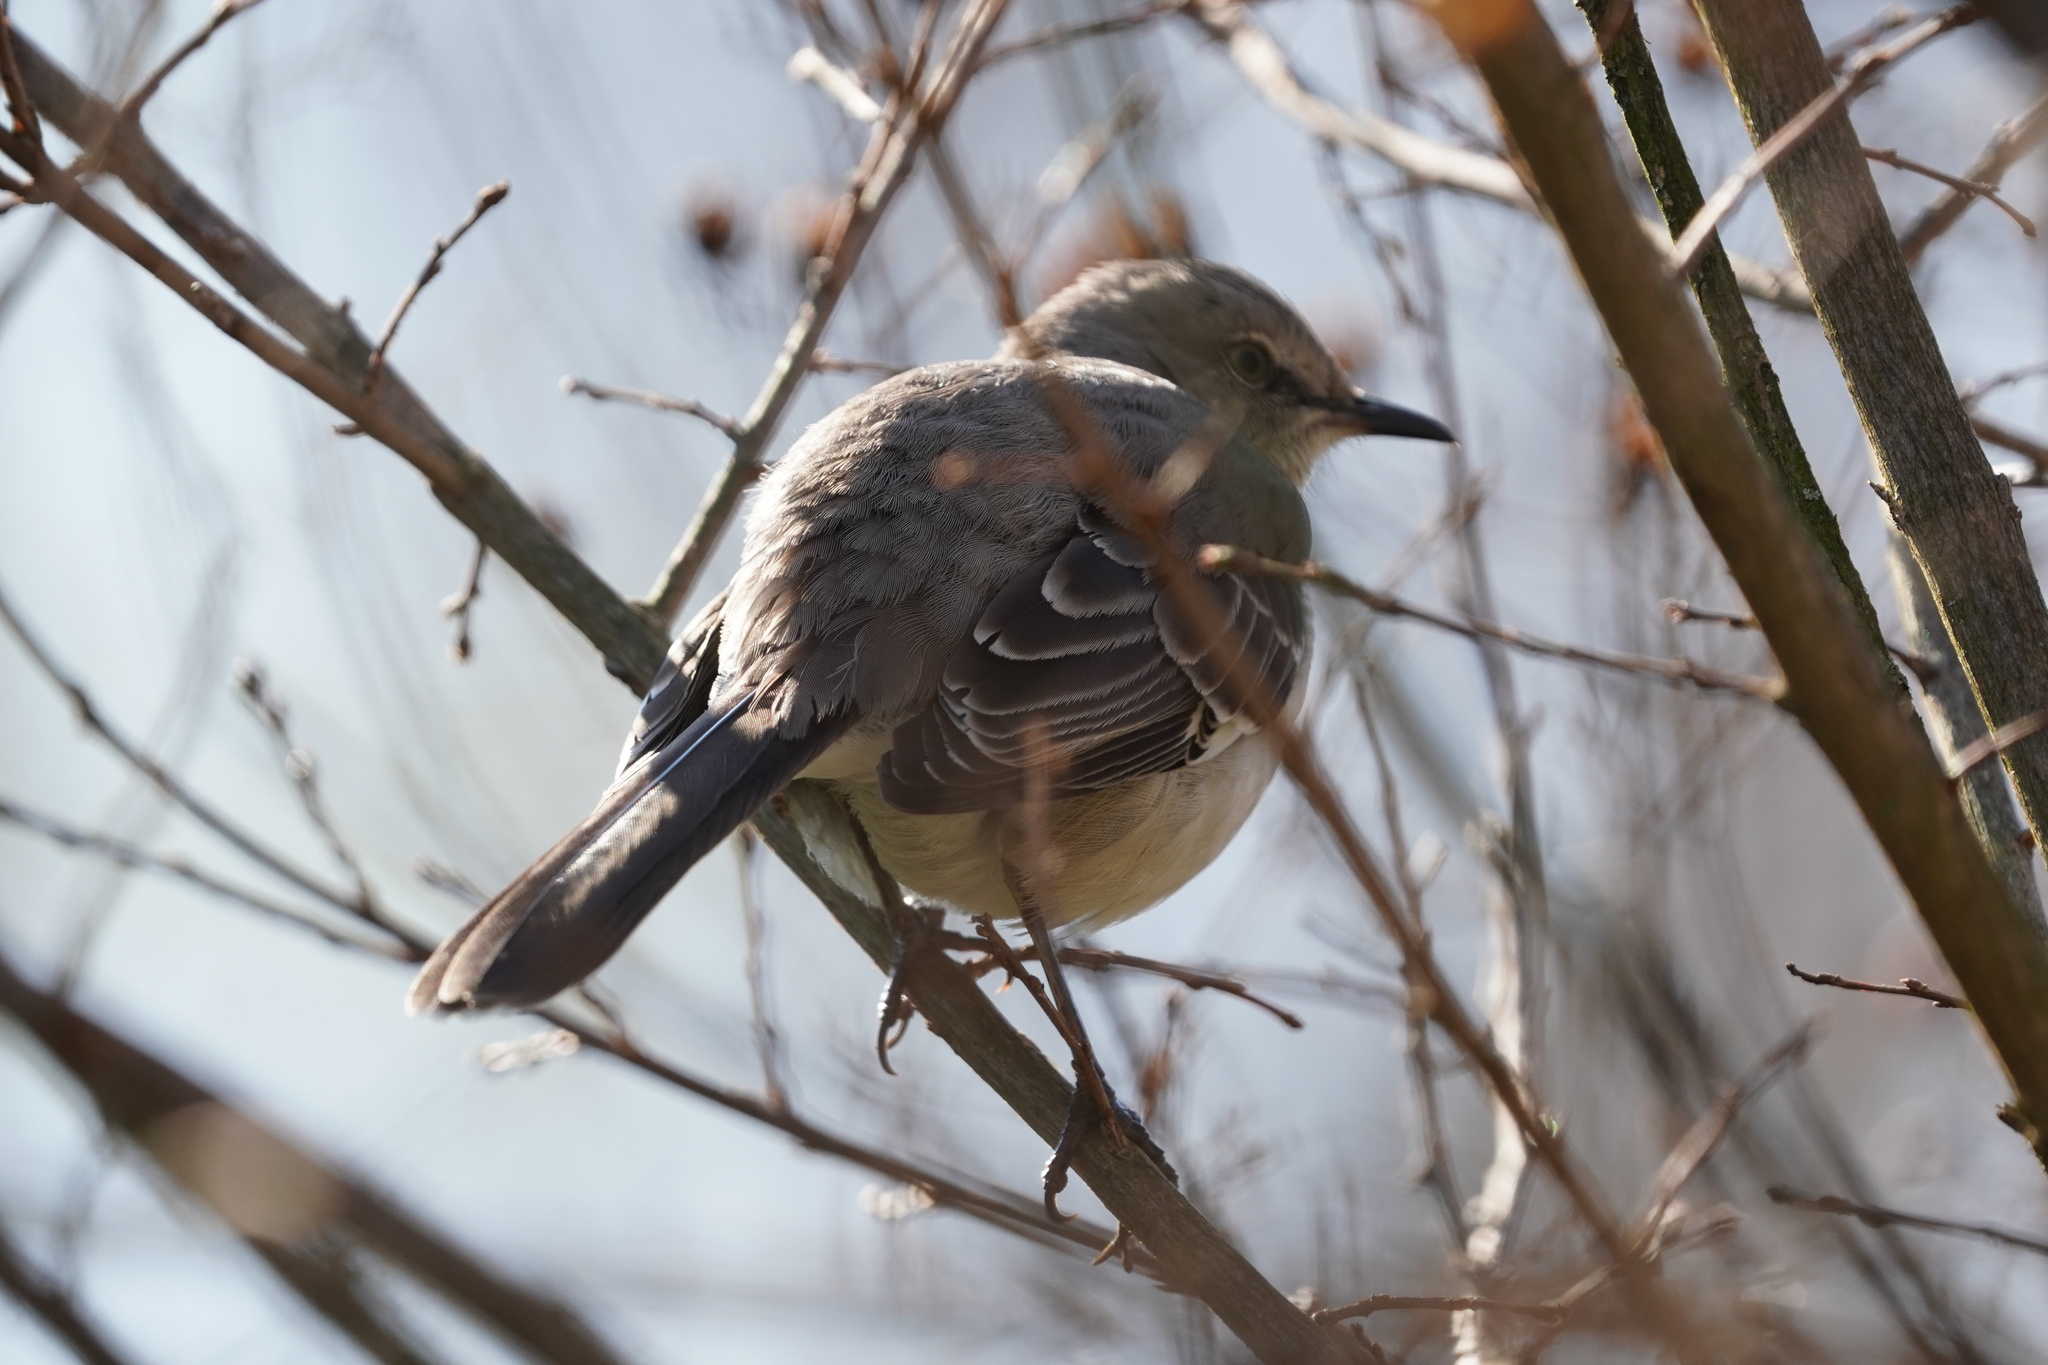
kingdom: Animalia
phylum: Chordata
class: Aves
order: Passeriformes
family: Mimidae
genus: Mimus
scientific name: Mimus polyglottos
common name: Northern mockingbird
